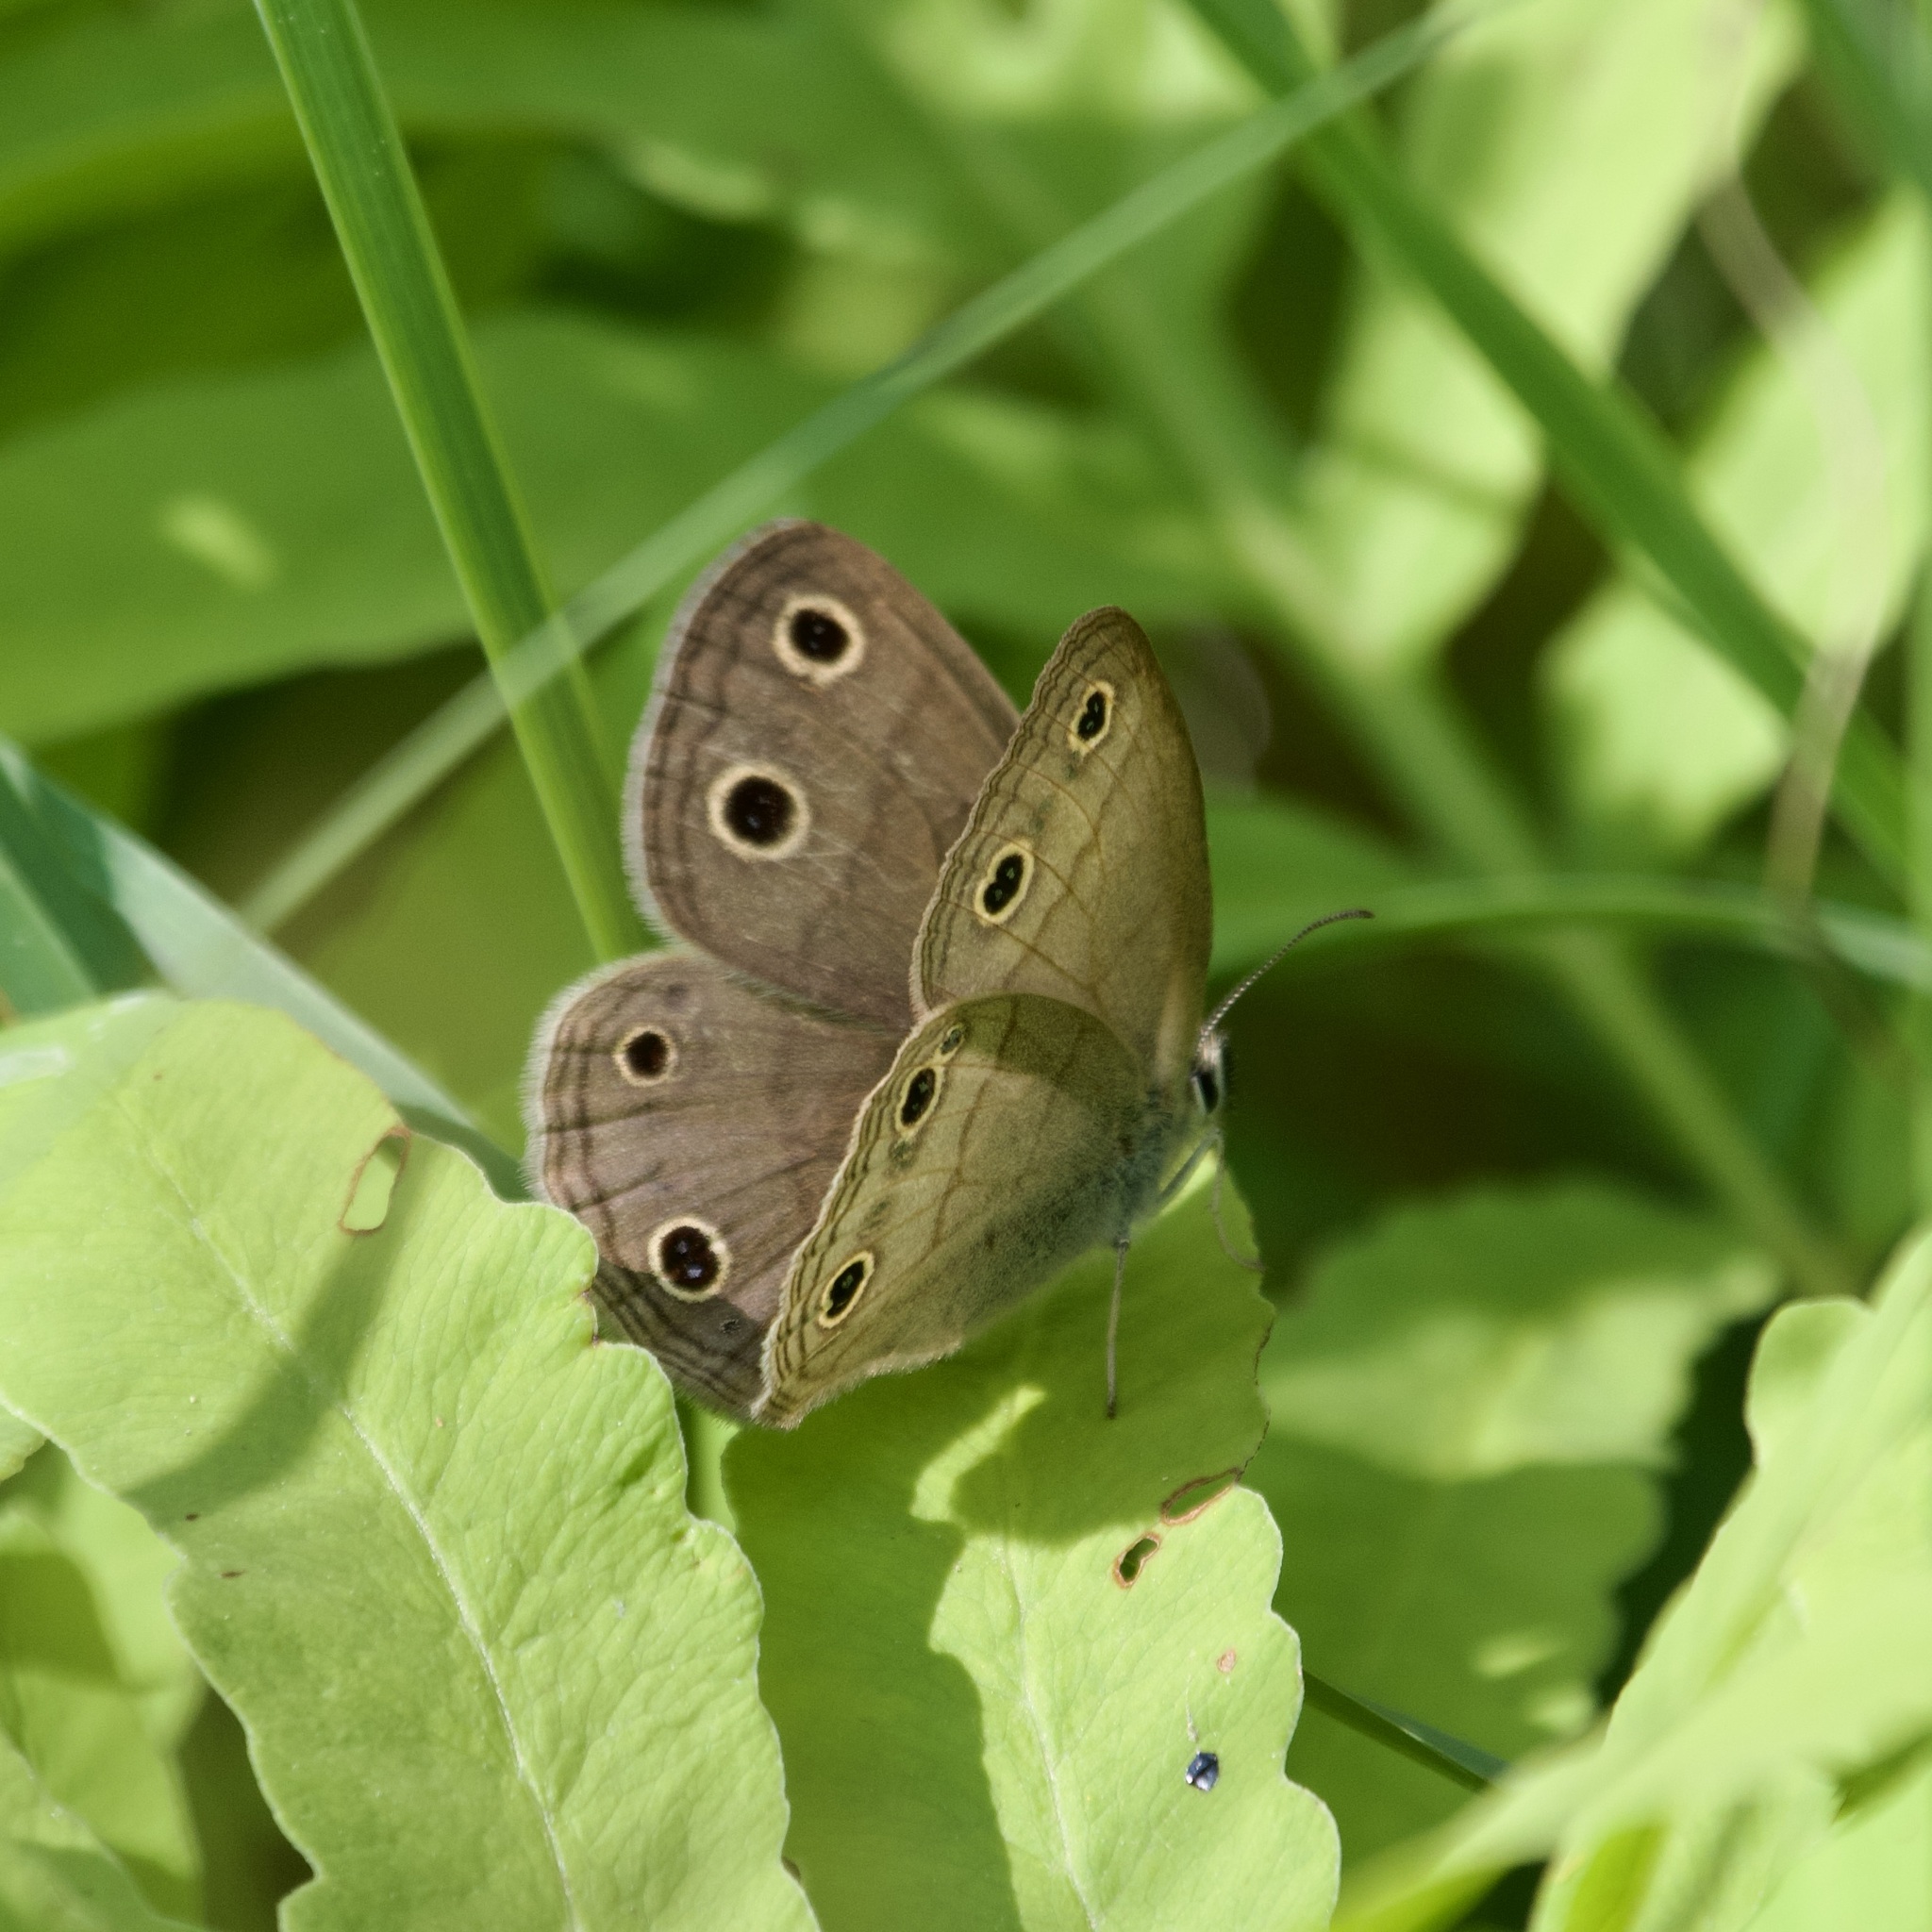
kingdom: Animalia
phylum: Arthropoda
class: Insecta
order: Lepidoptera
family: Nymphalidae
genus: Euptychia
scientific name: Euptychia cymela
